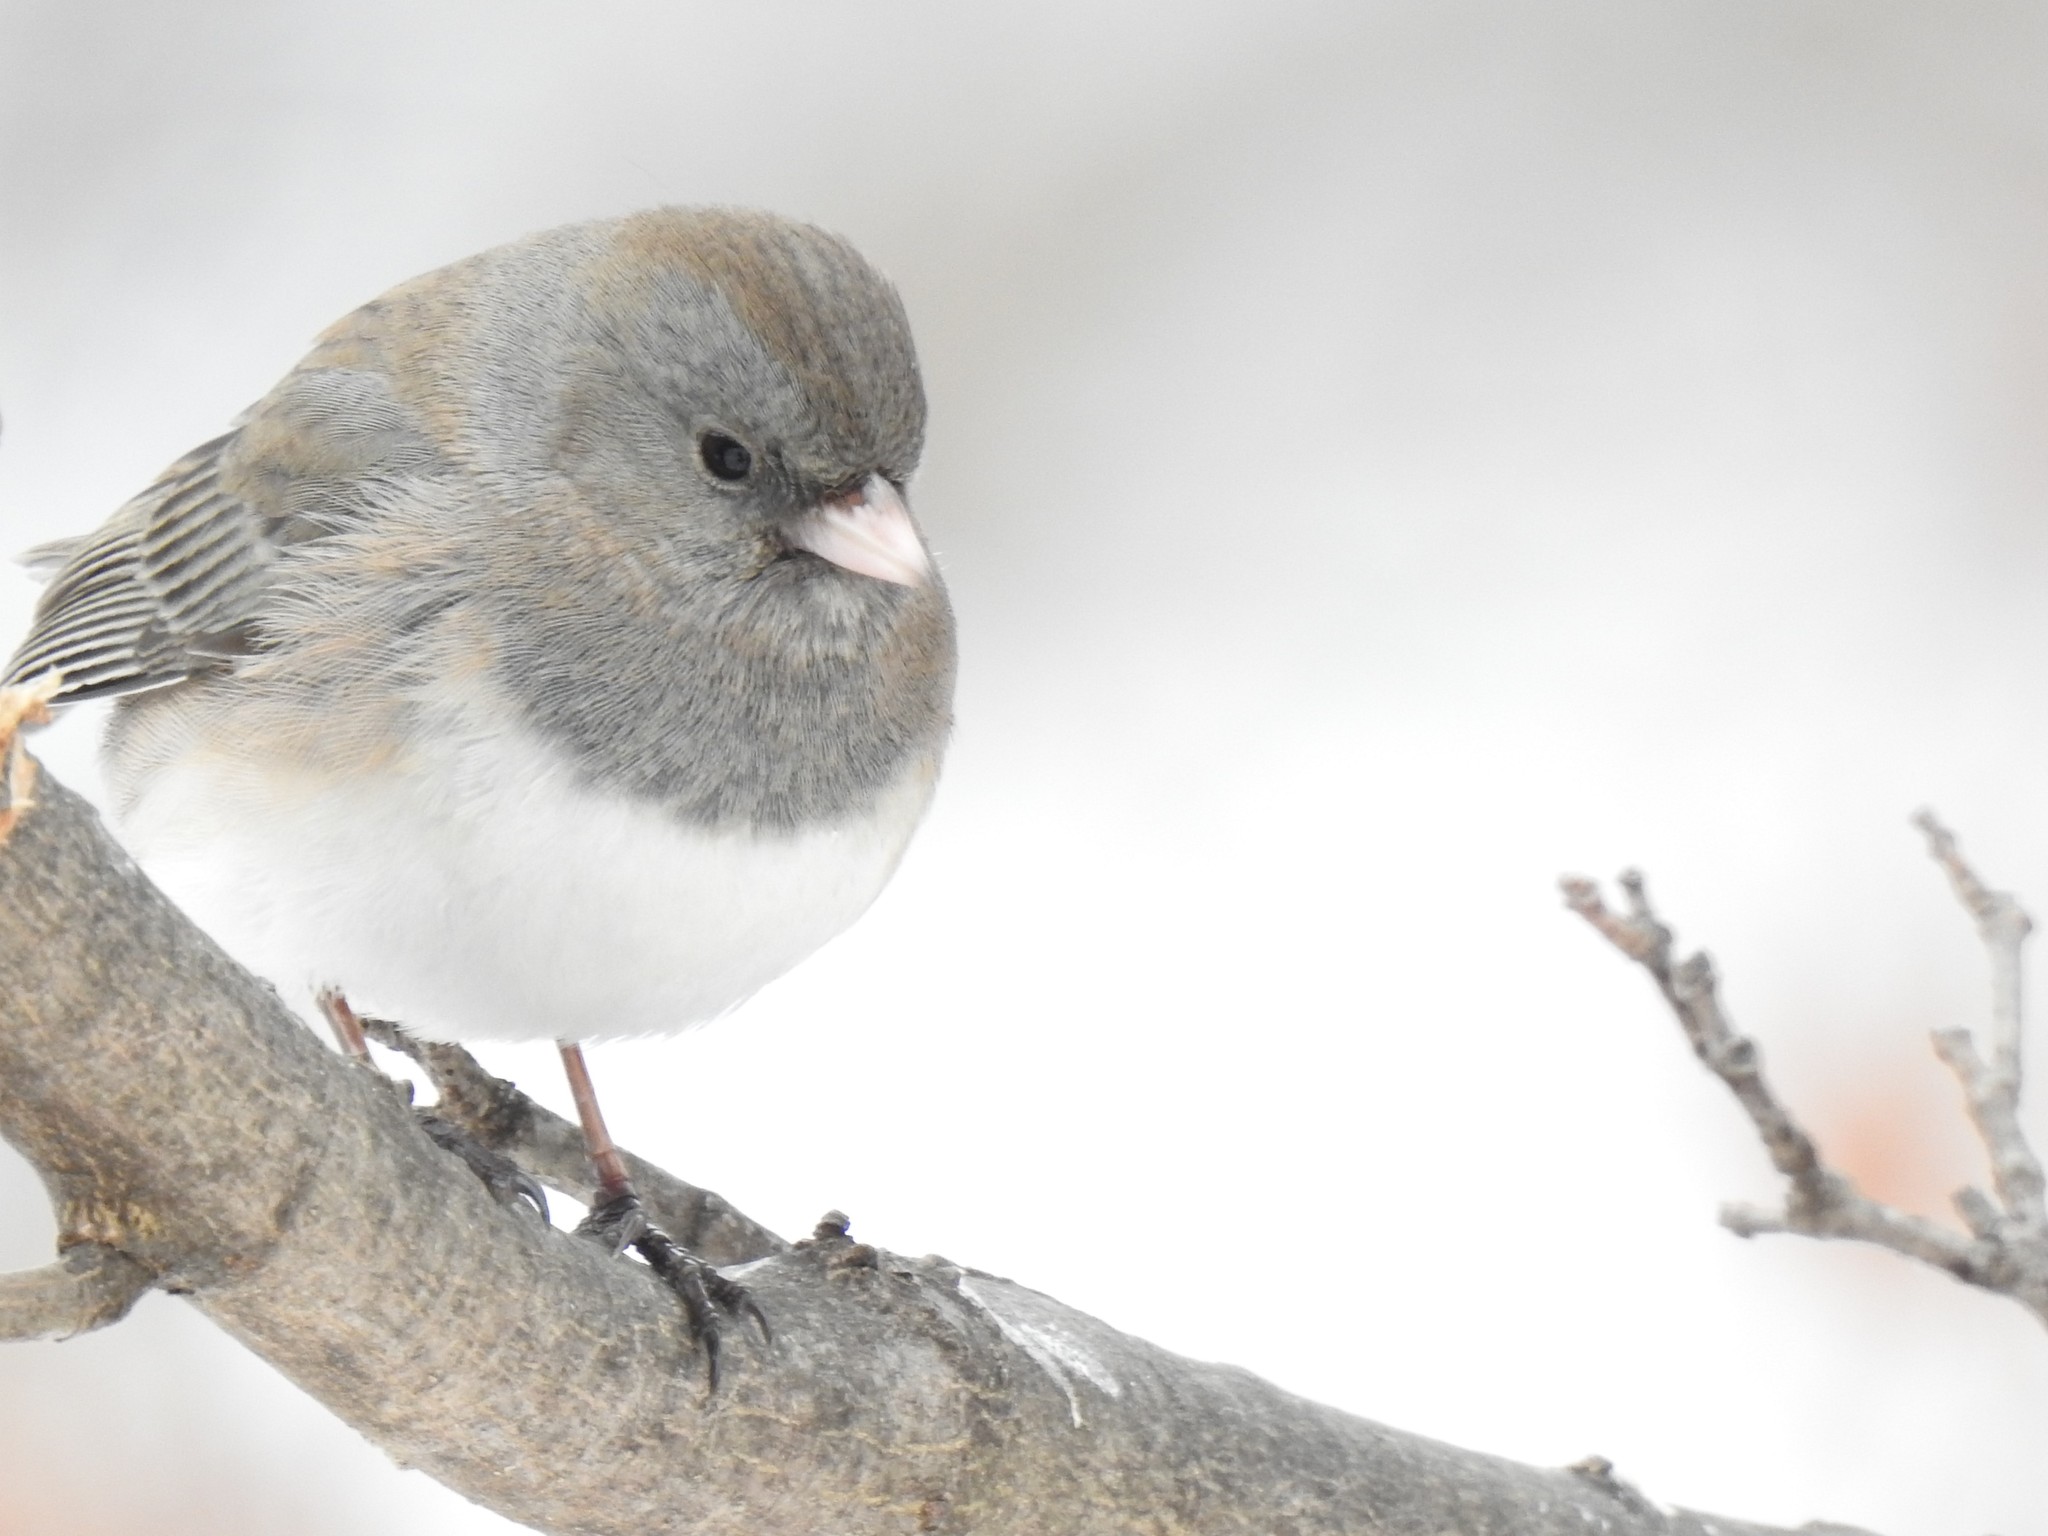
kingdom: Animalia
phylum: Chordata
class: Aves
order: Passeriformes
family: Passerellidae
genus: Junco
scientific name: Junco hyemalis
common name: Dark-eyed junco
